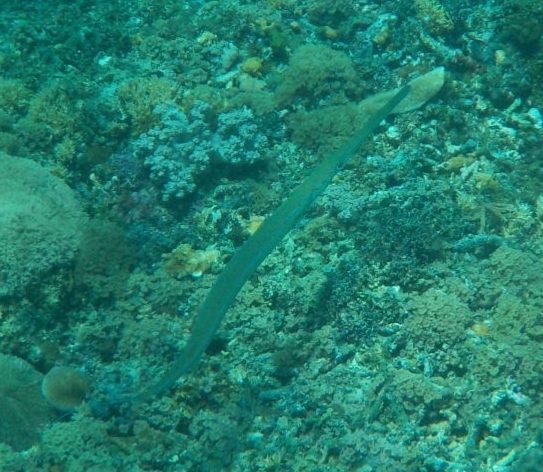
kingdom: Animalia
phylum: Chordata
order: Syngnathiformes
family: Fistulariidae
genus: Fistularia
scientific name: Fistularia commersonii
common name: Bluespotted cornetfish
